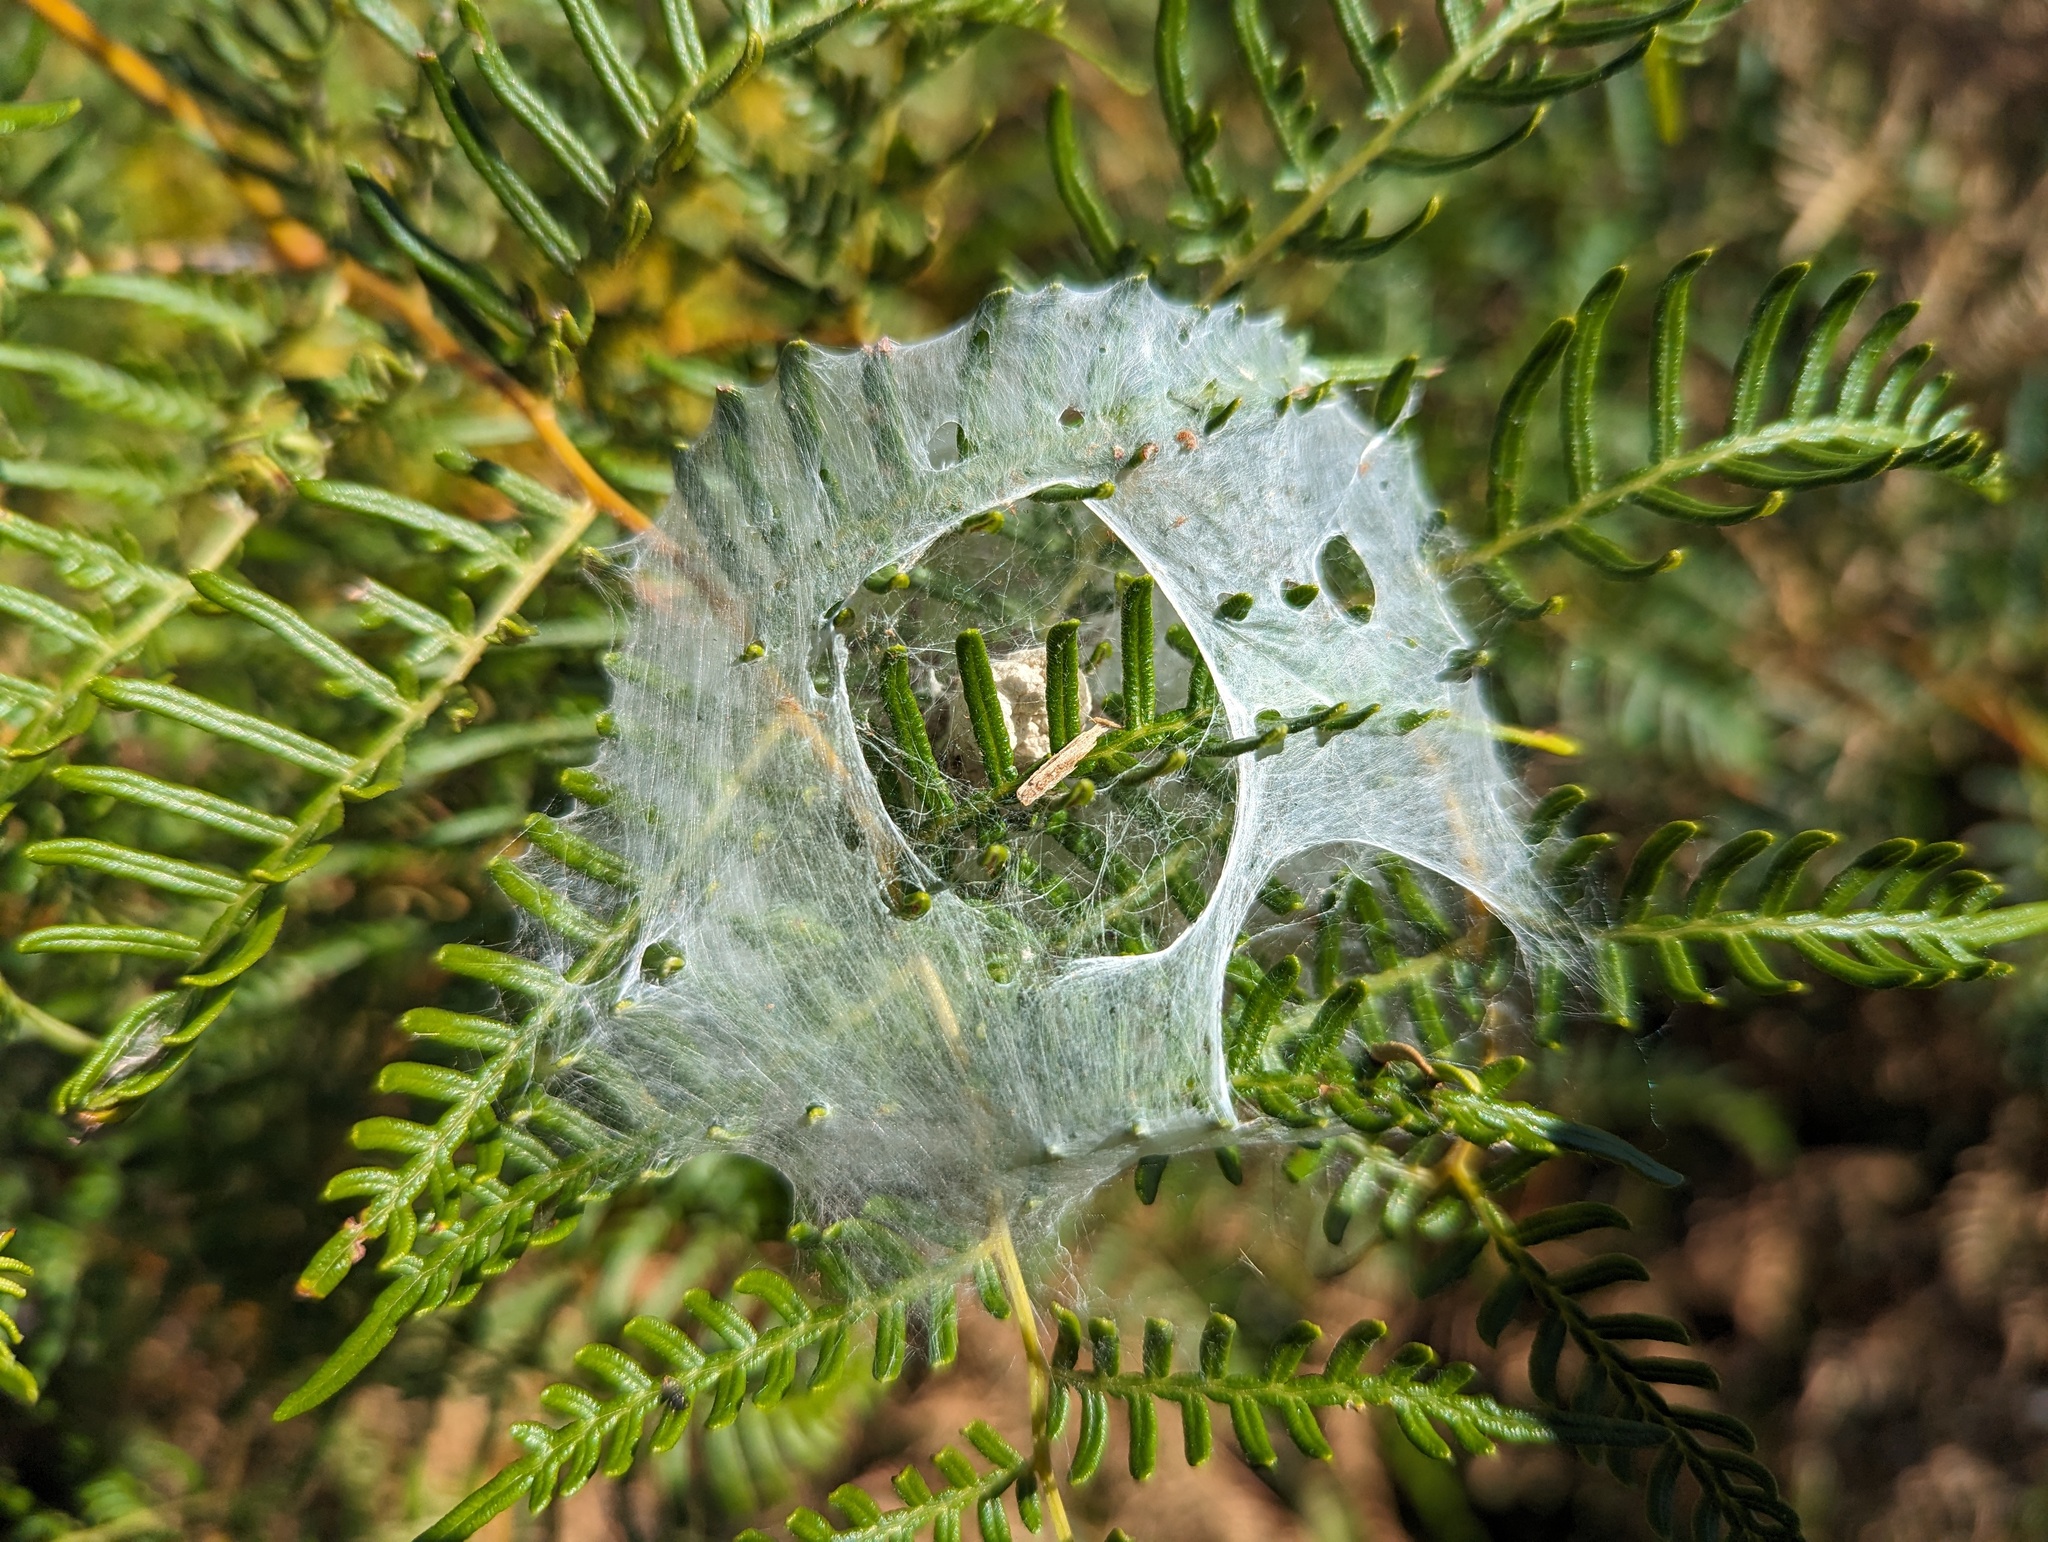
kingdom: Animalia
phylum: Arthropoda
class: Arachnida
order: Araneae
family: Pisauridae
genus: Dolomedes
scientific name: Dolomedes minor
